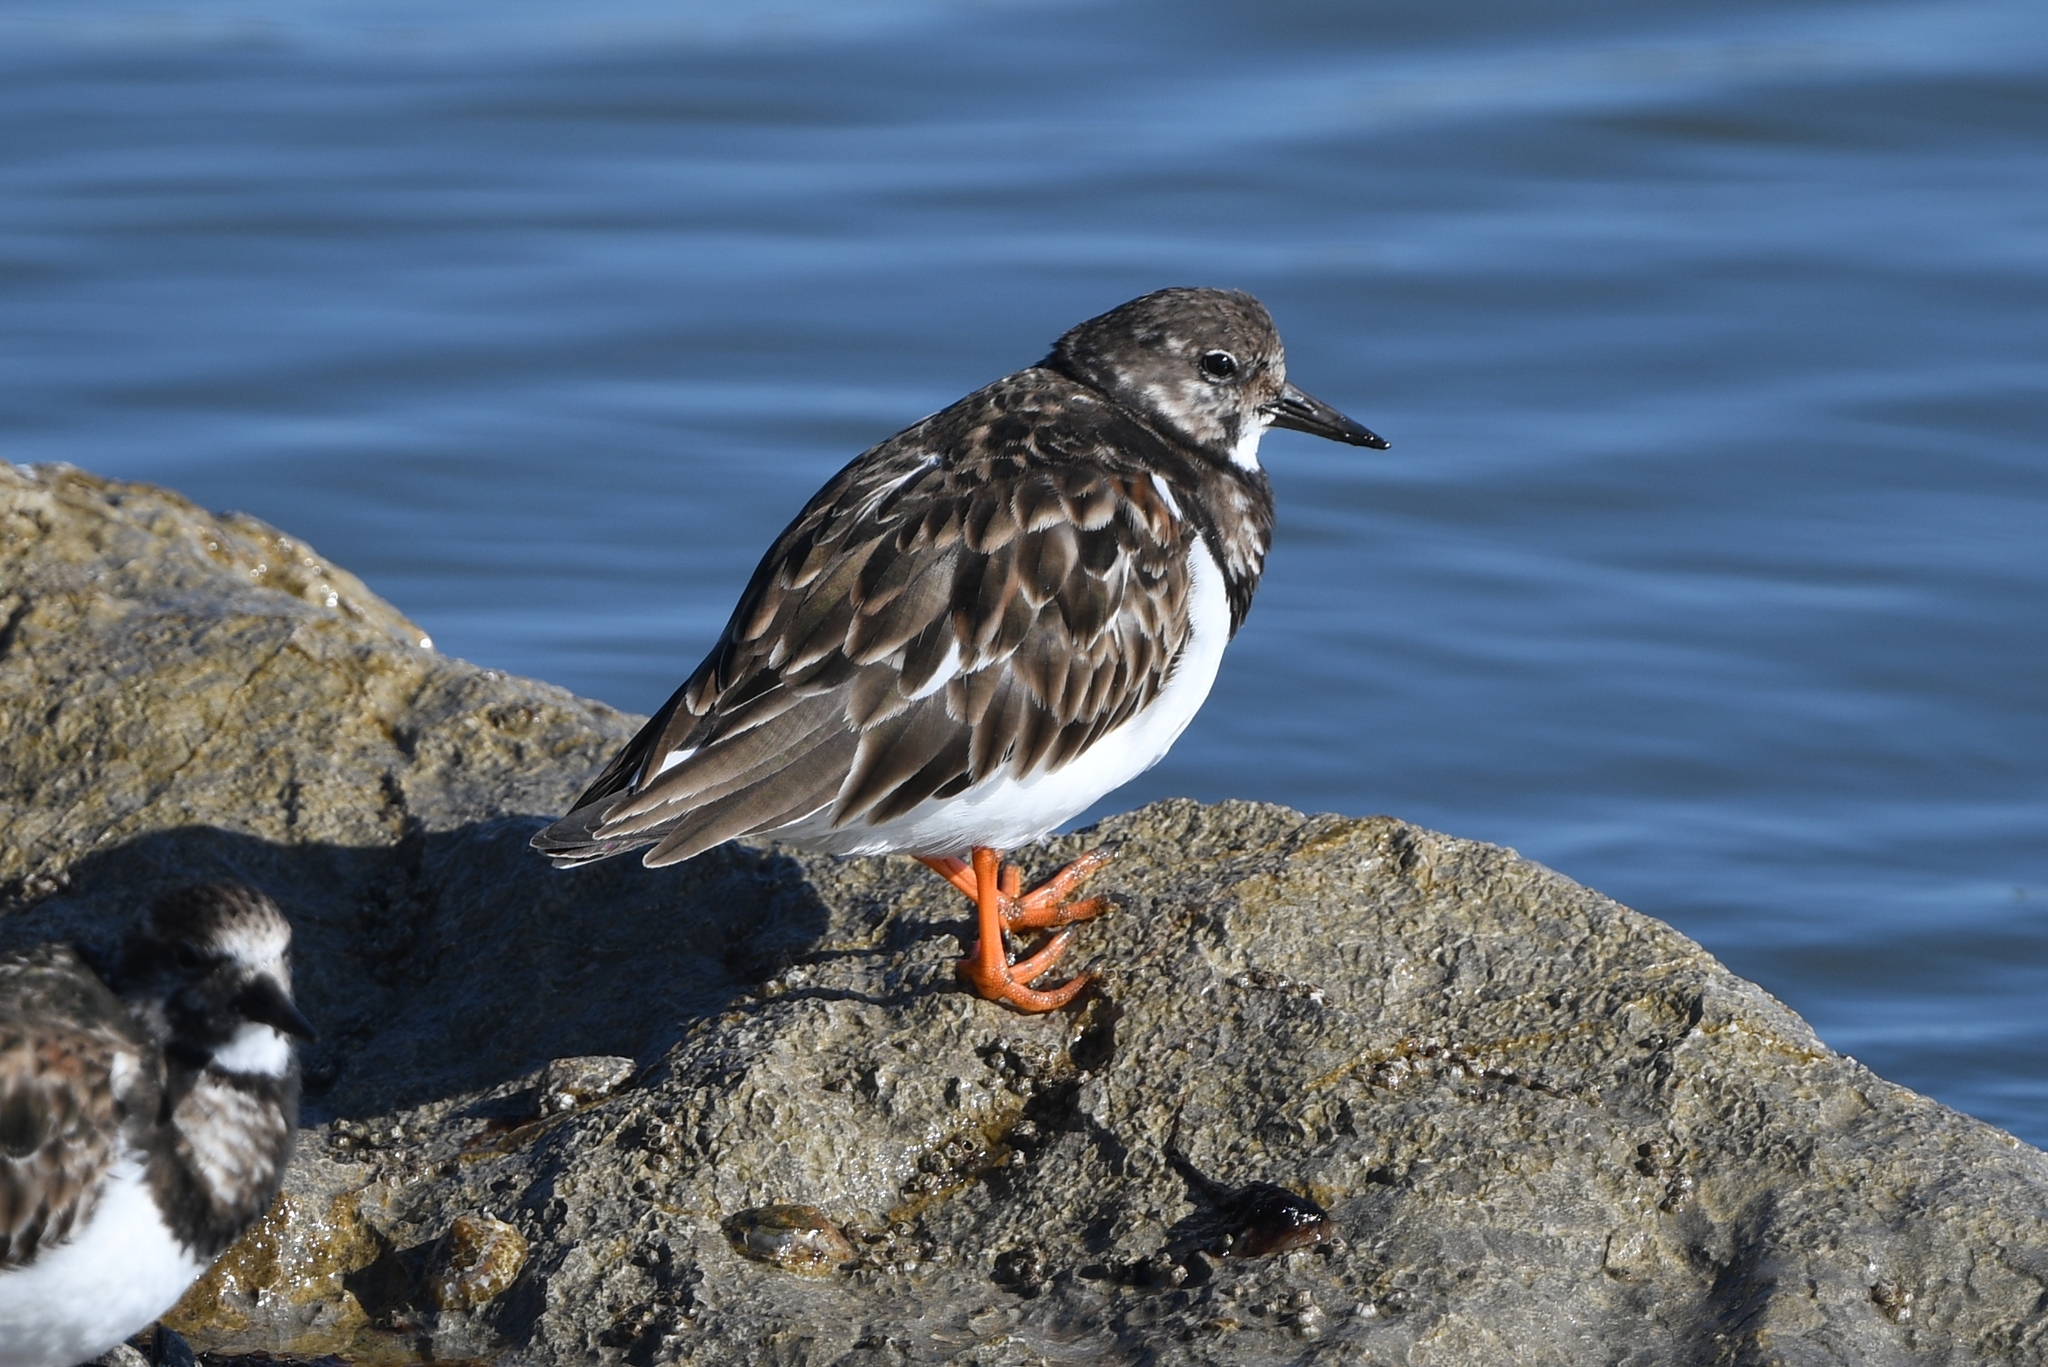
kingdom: Animalia
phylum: Chordata
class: Aves
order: Charadriiformes
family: Scolopacidae
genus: Arenaria
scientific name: Arenaria interpres
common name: Ruddy turnstone
